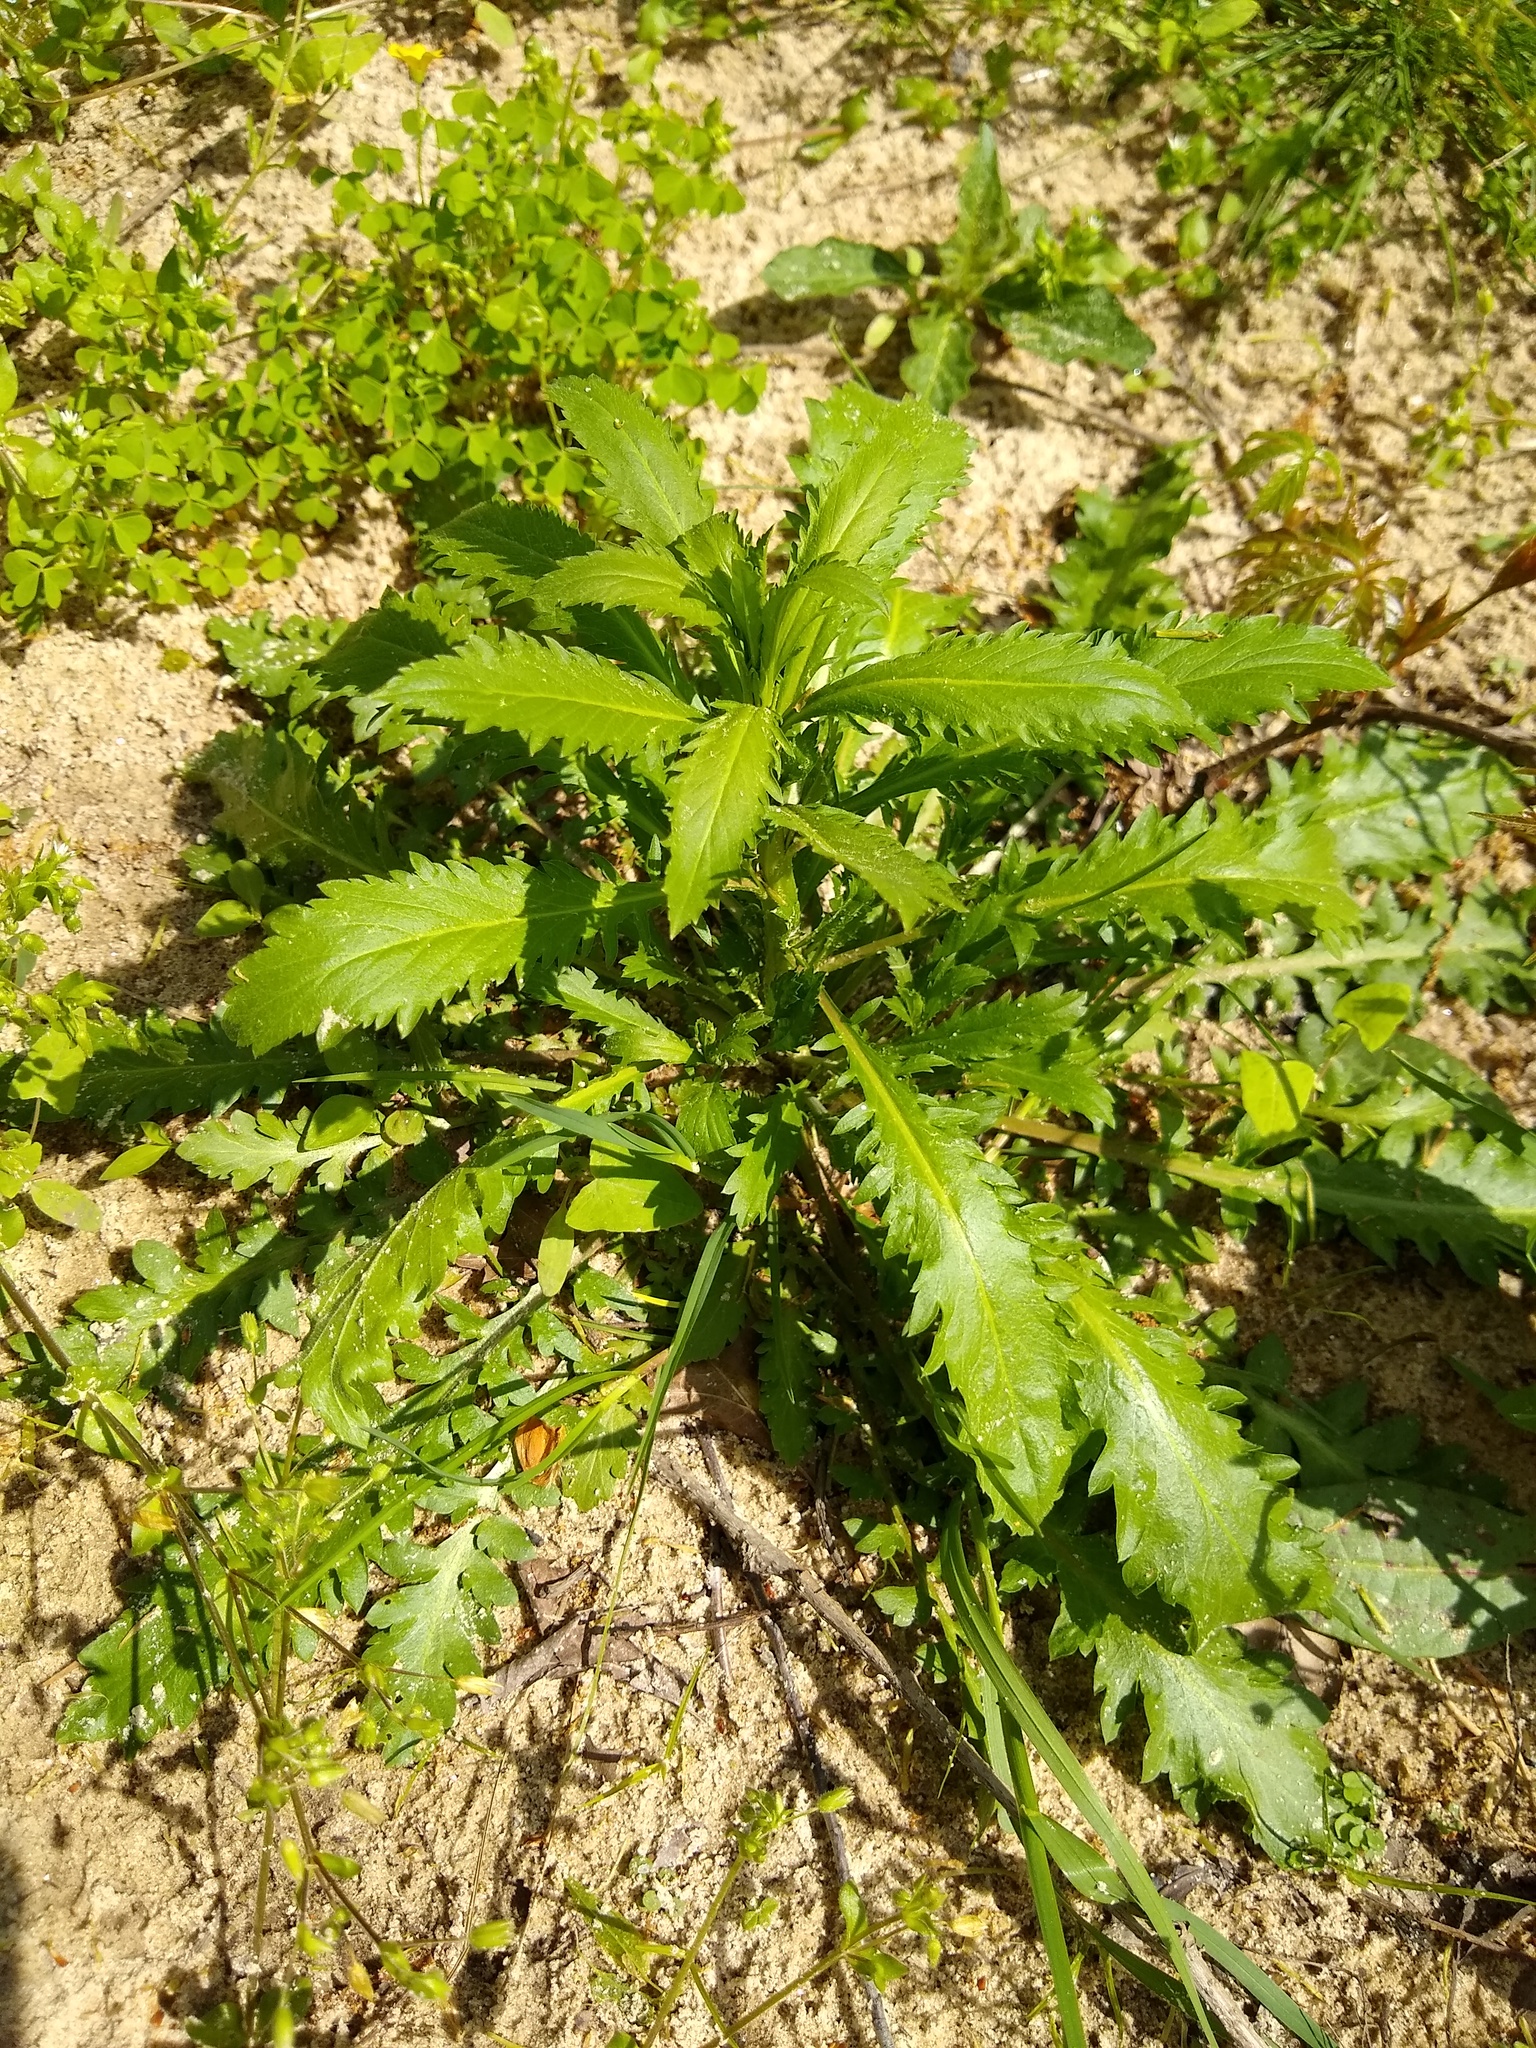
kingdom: Plantae
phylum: Tracheophyta
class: Magnoliopsida
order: Asterales
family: Asteraceae
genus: Erechtites
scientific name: Erechtites hieraciifolius
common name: American burnweed
